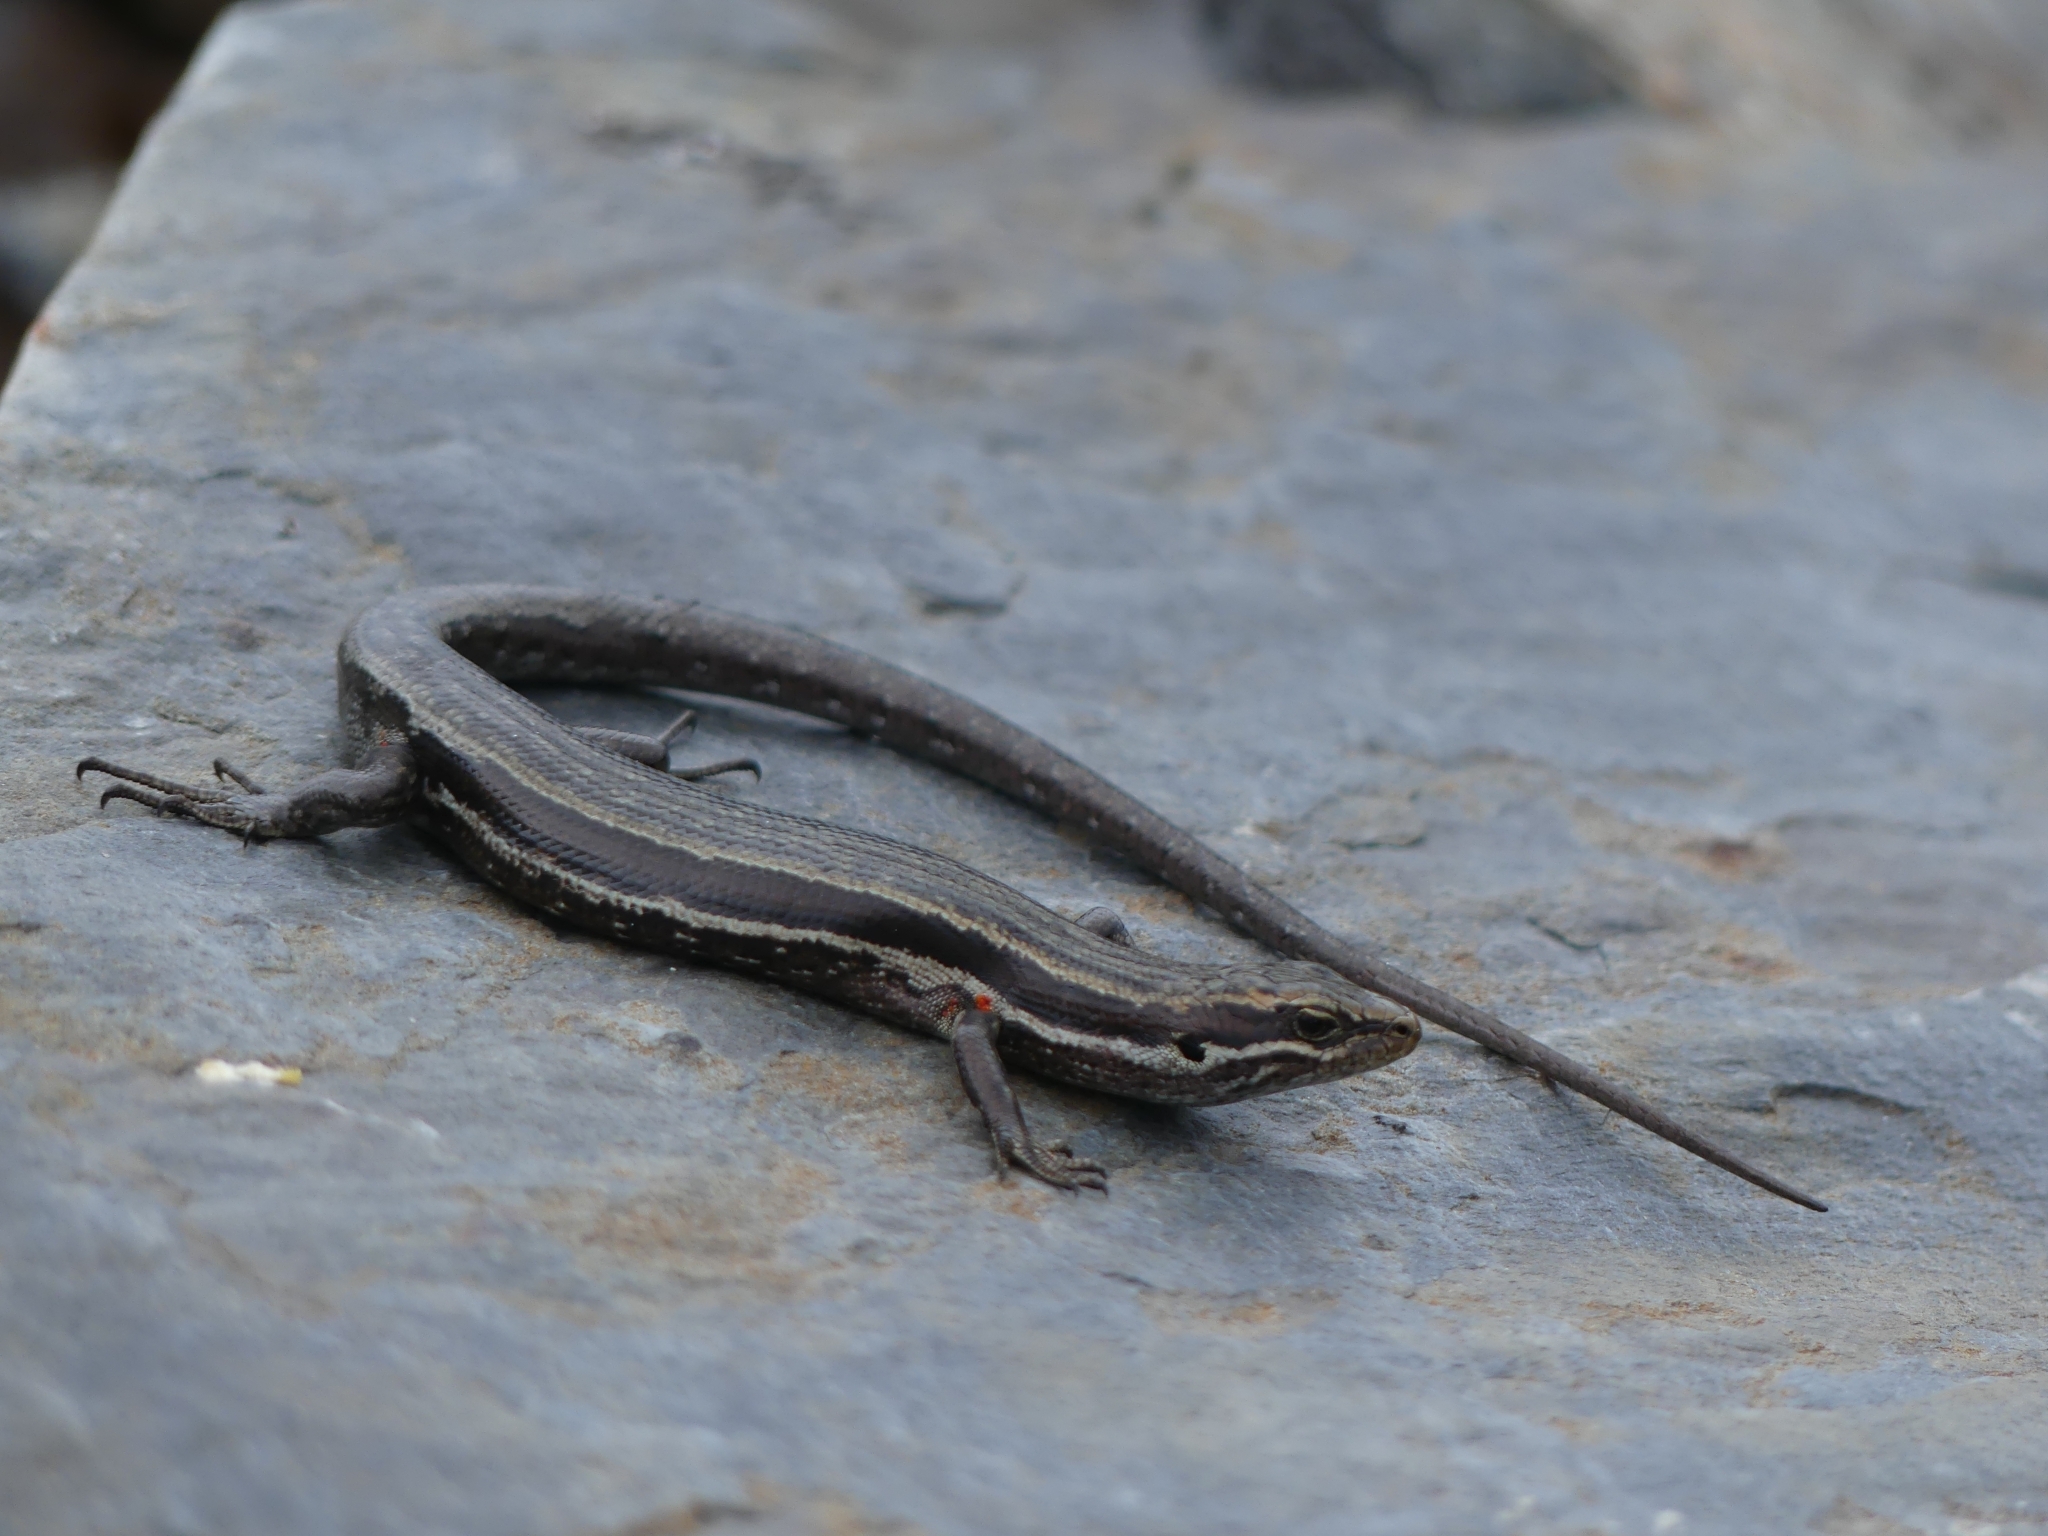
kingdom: Animalia
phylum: Chordata
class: Squamata
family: Scincidae
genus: Oligosoma
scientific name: Oligosoma kahurangi
